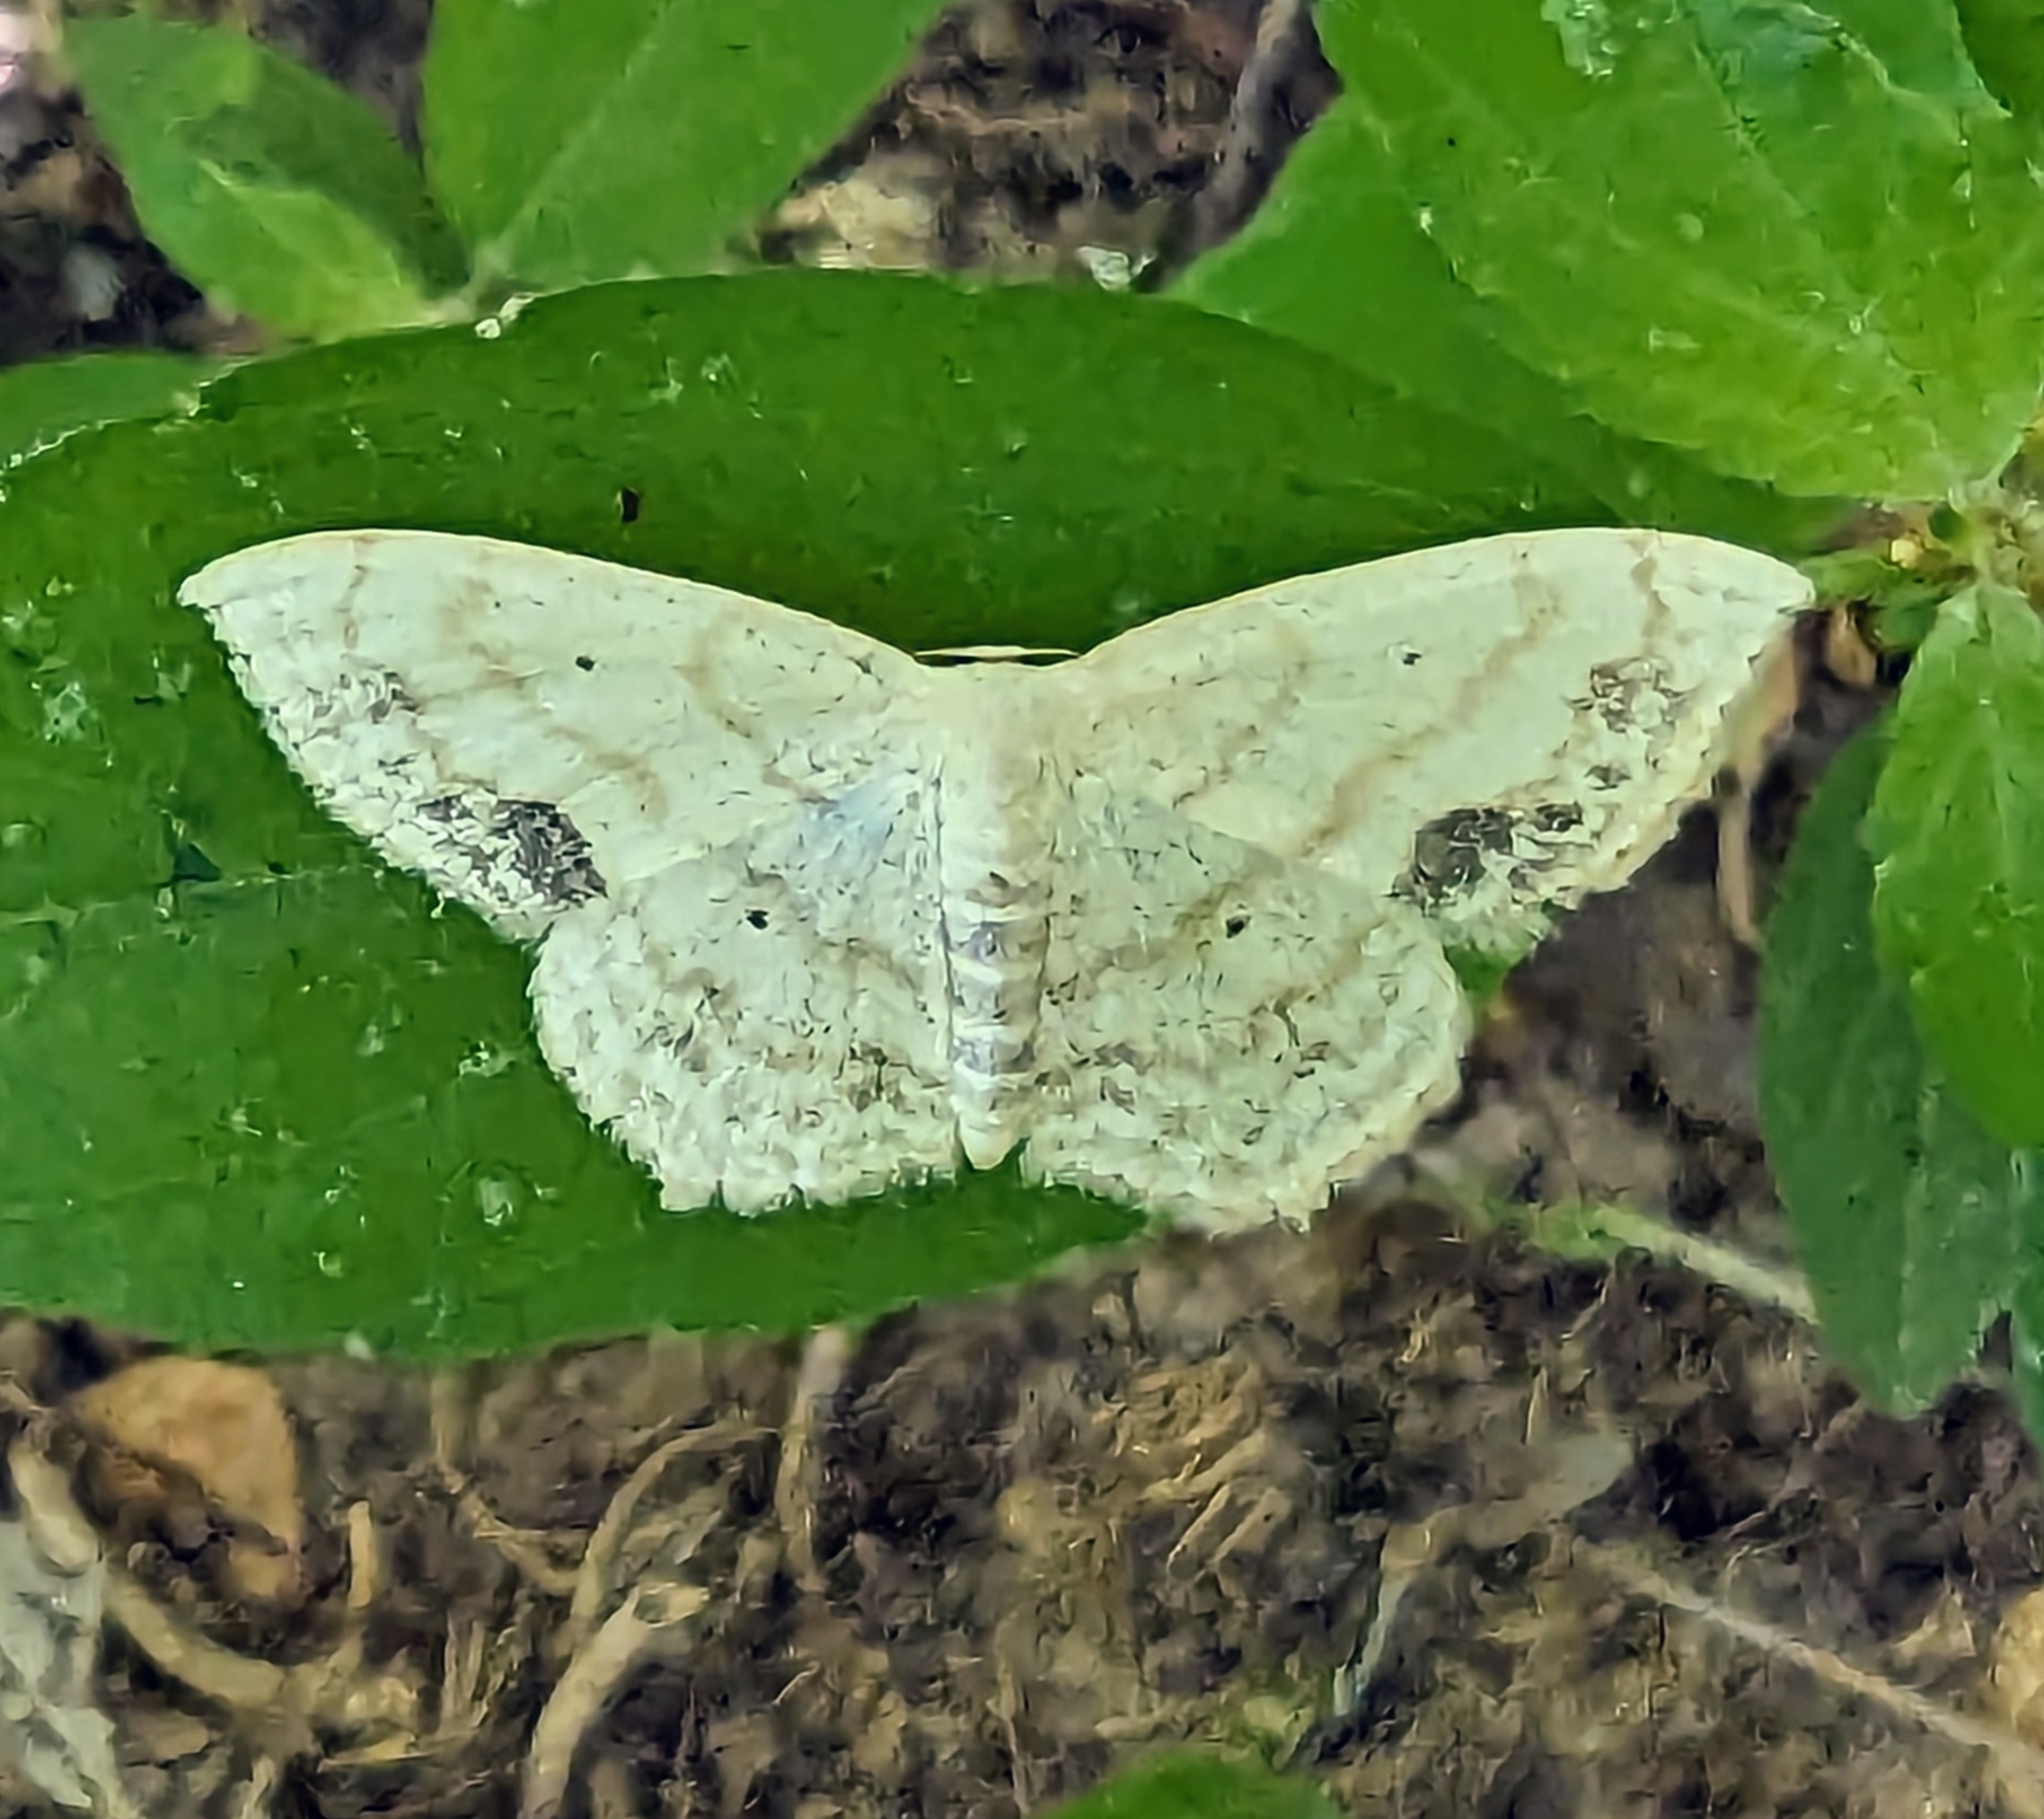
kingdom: Animalia
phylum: Arthropoda
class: Insecta
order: Lepidoptera
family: Geometridae
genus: Scopula
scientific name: Scopula limboundata
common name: Large lace border
